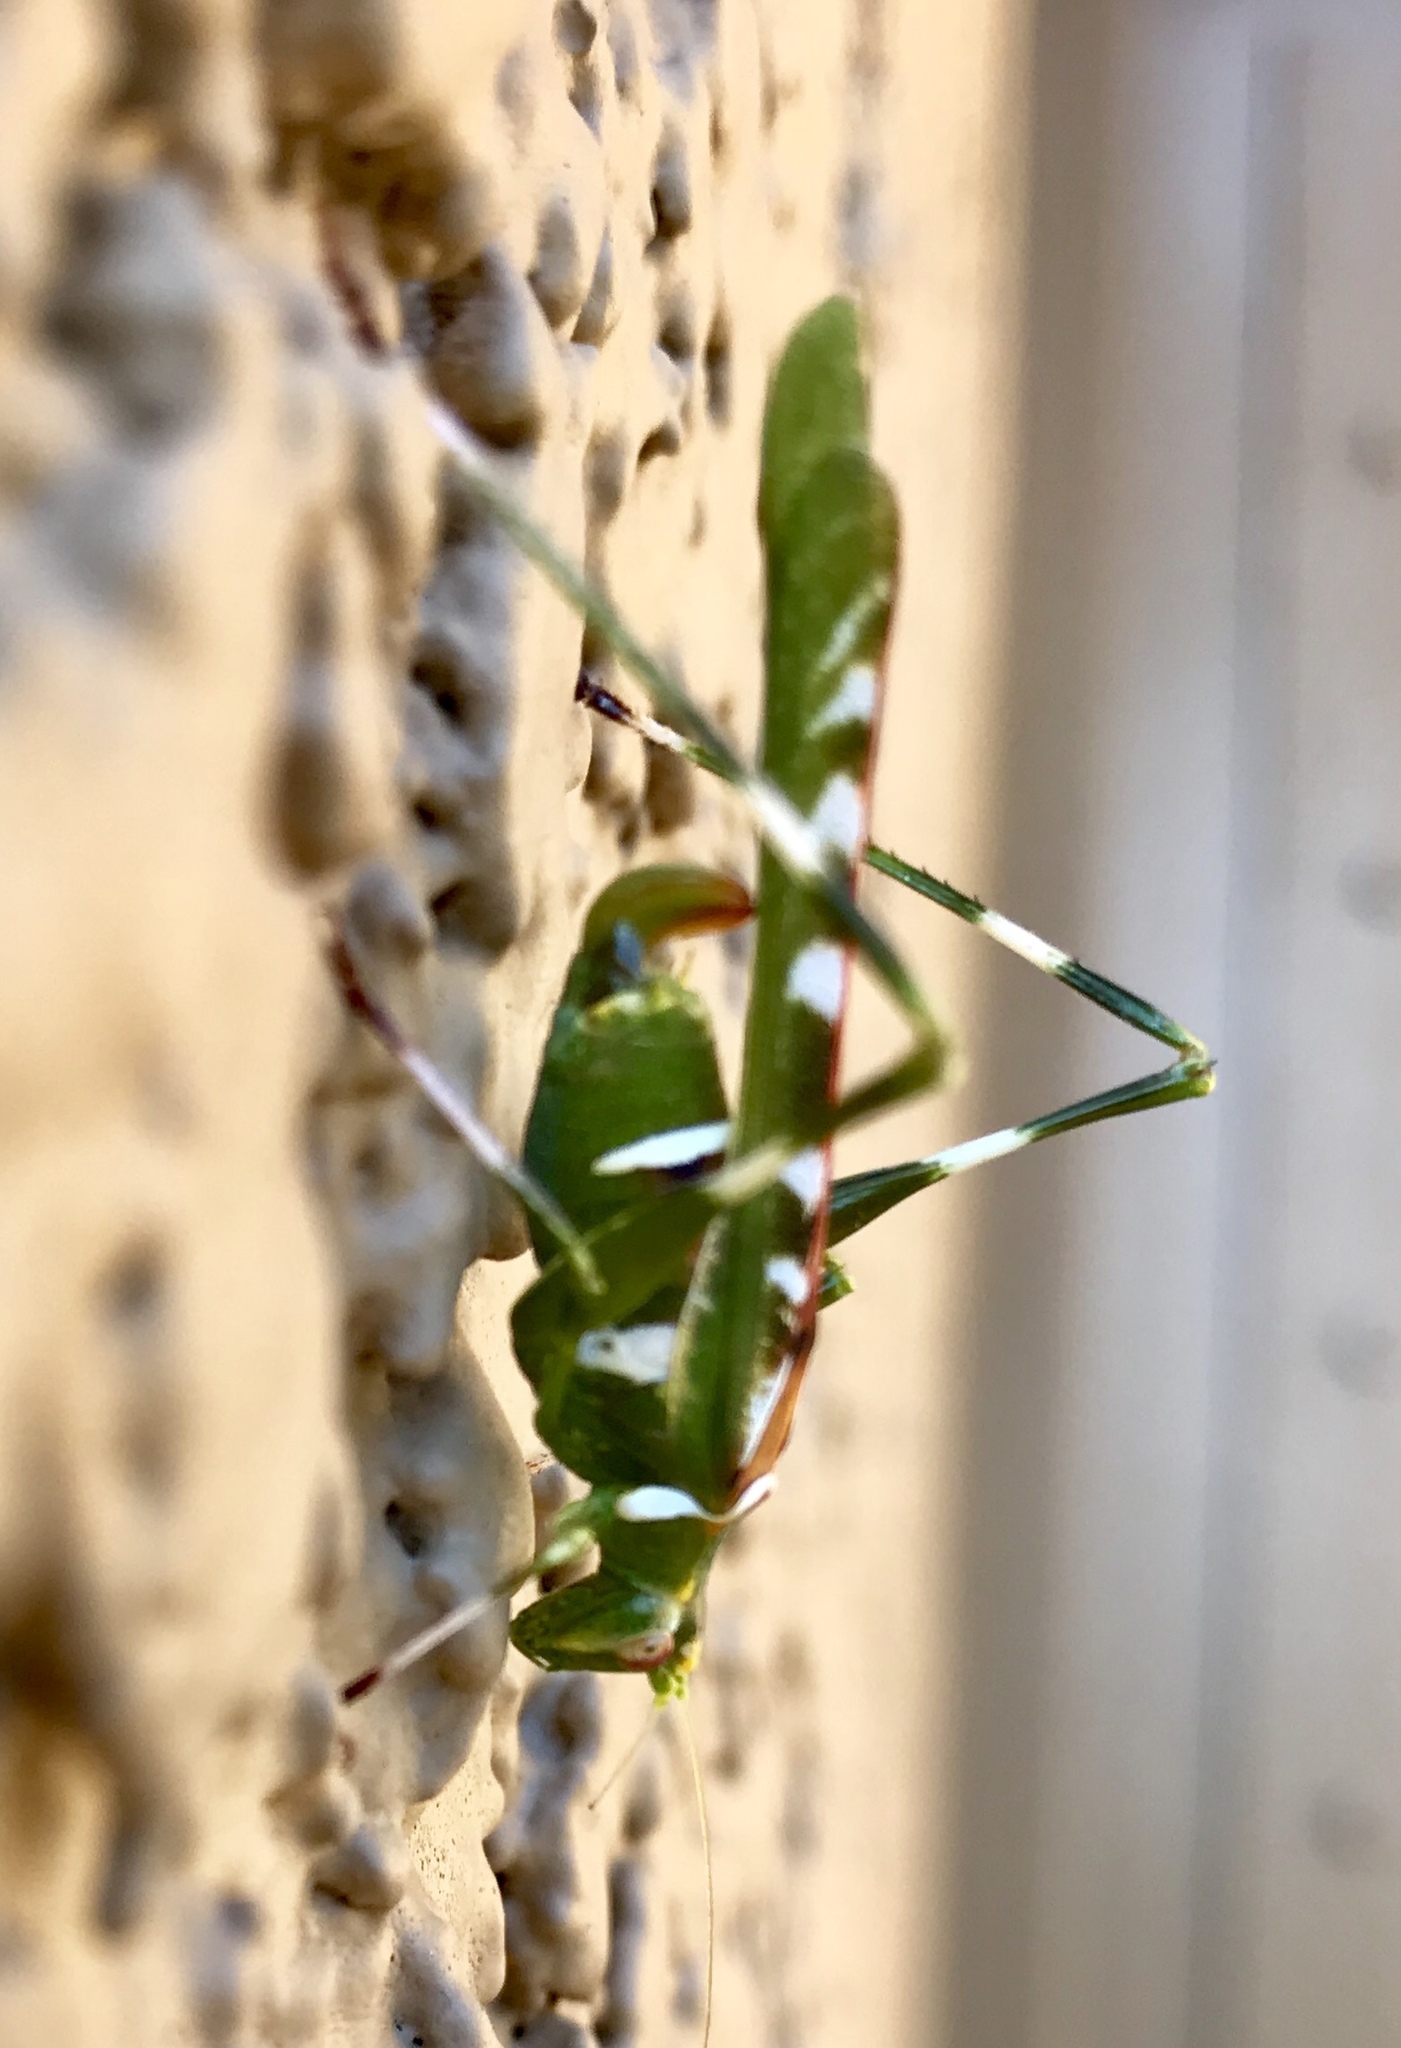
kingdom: Animalia
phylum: Arthropoda
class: Insecta
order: Orthoptera
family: Tettigoniidae
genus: Insara
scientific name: Insara covilleae
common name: Creosote bush katydid
